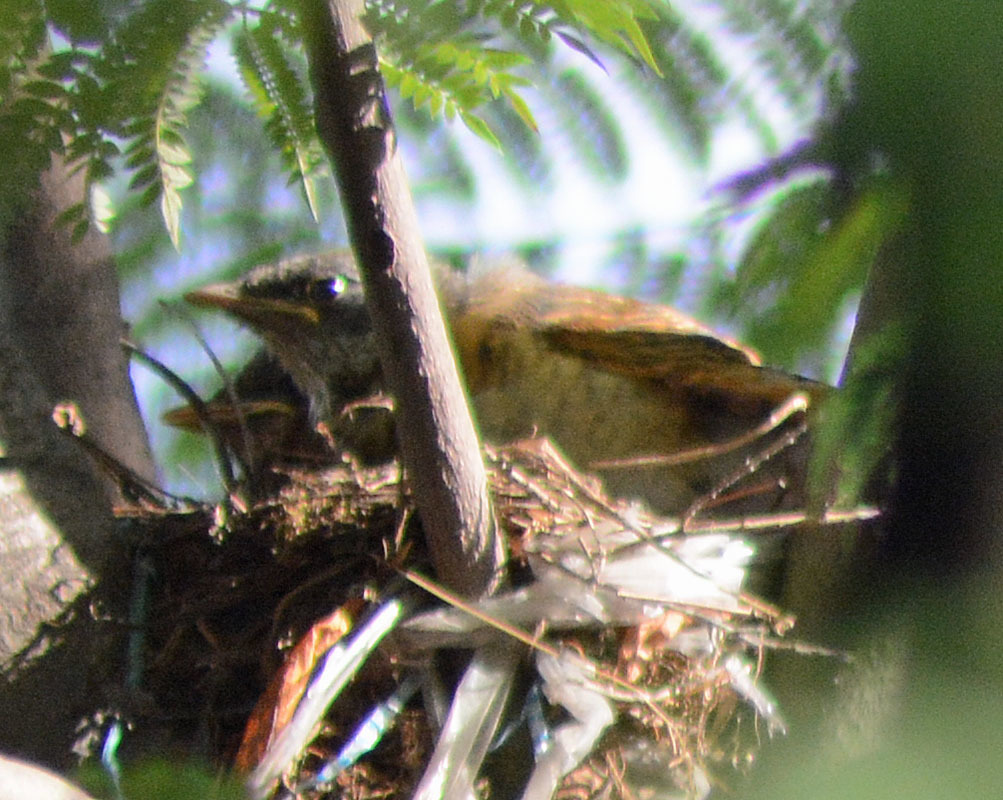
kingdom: Animalia
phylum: Chordata
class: Aves
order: Passeriformes
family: Turdidae
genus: Turdus
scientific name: Turdus rufopalliatus
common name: Rufous-backed robin
